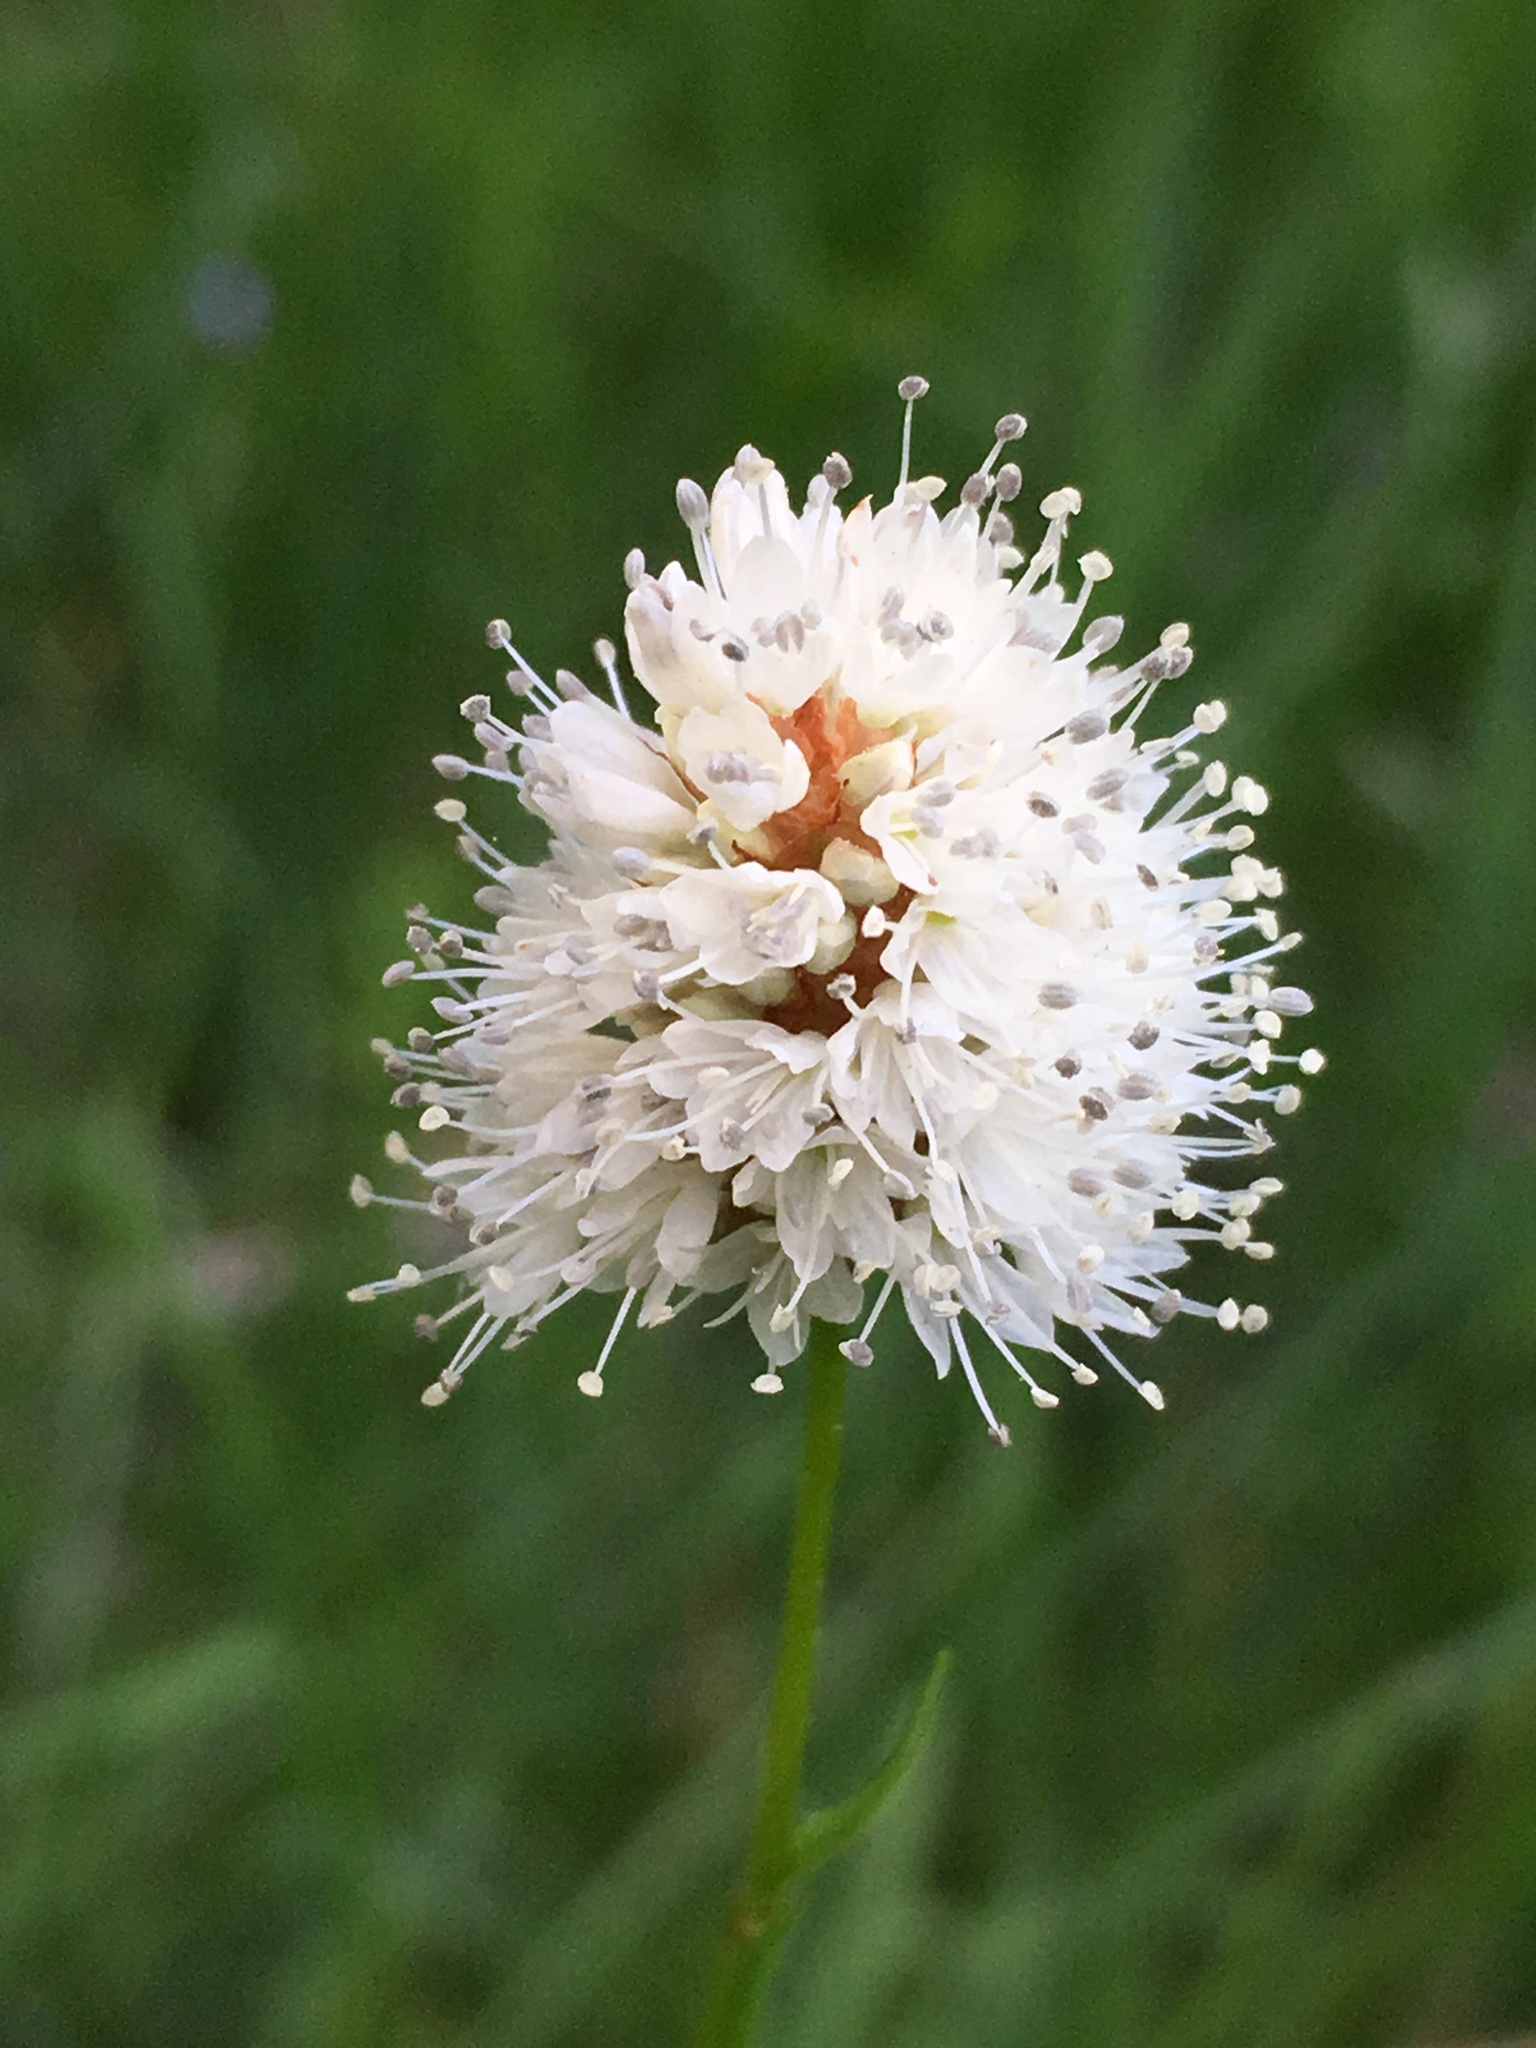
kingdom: Plantae
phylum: Tracheophyta
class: Magnoliopsida
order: Caryophyllales
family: Polygonaceae
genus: Bistorta
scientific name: Bistorta bistortoides
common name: American bistort
